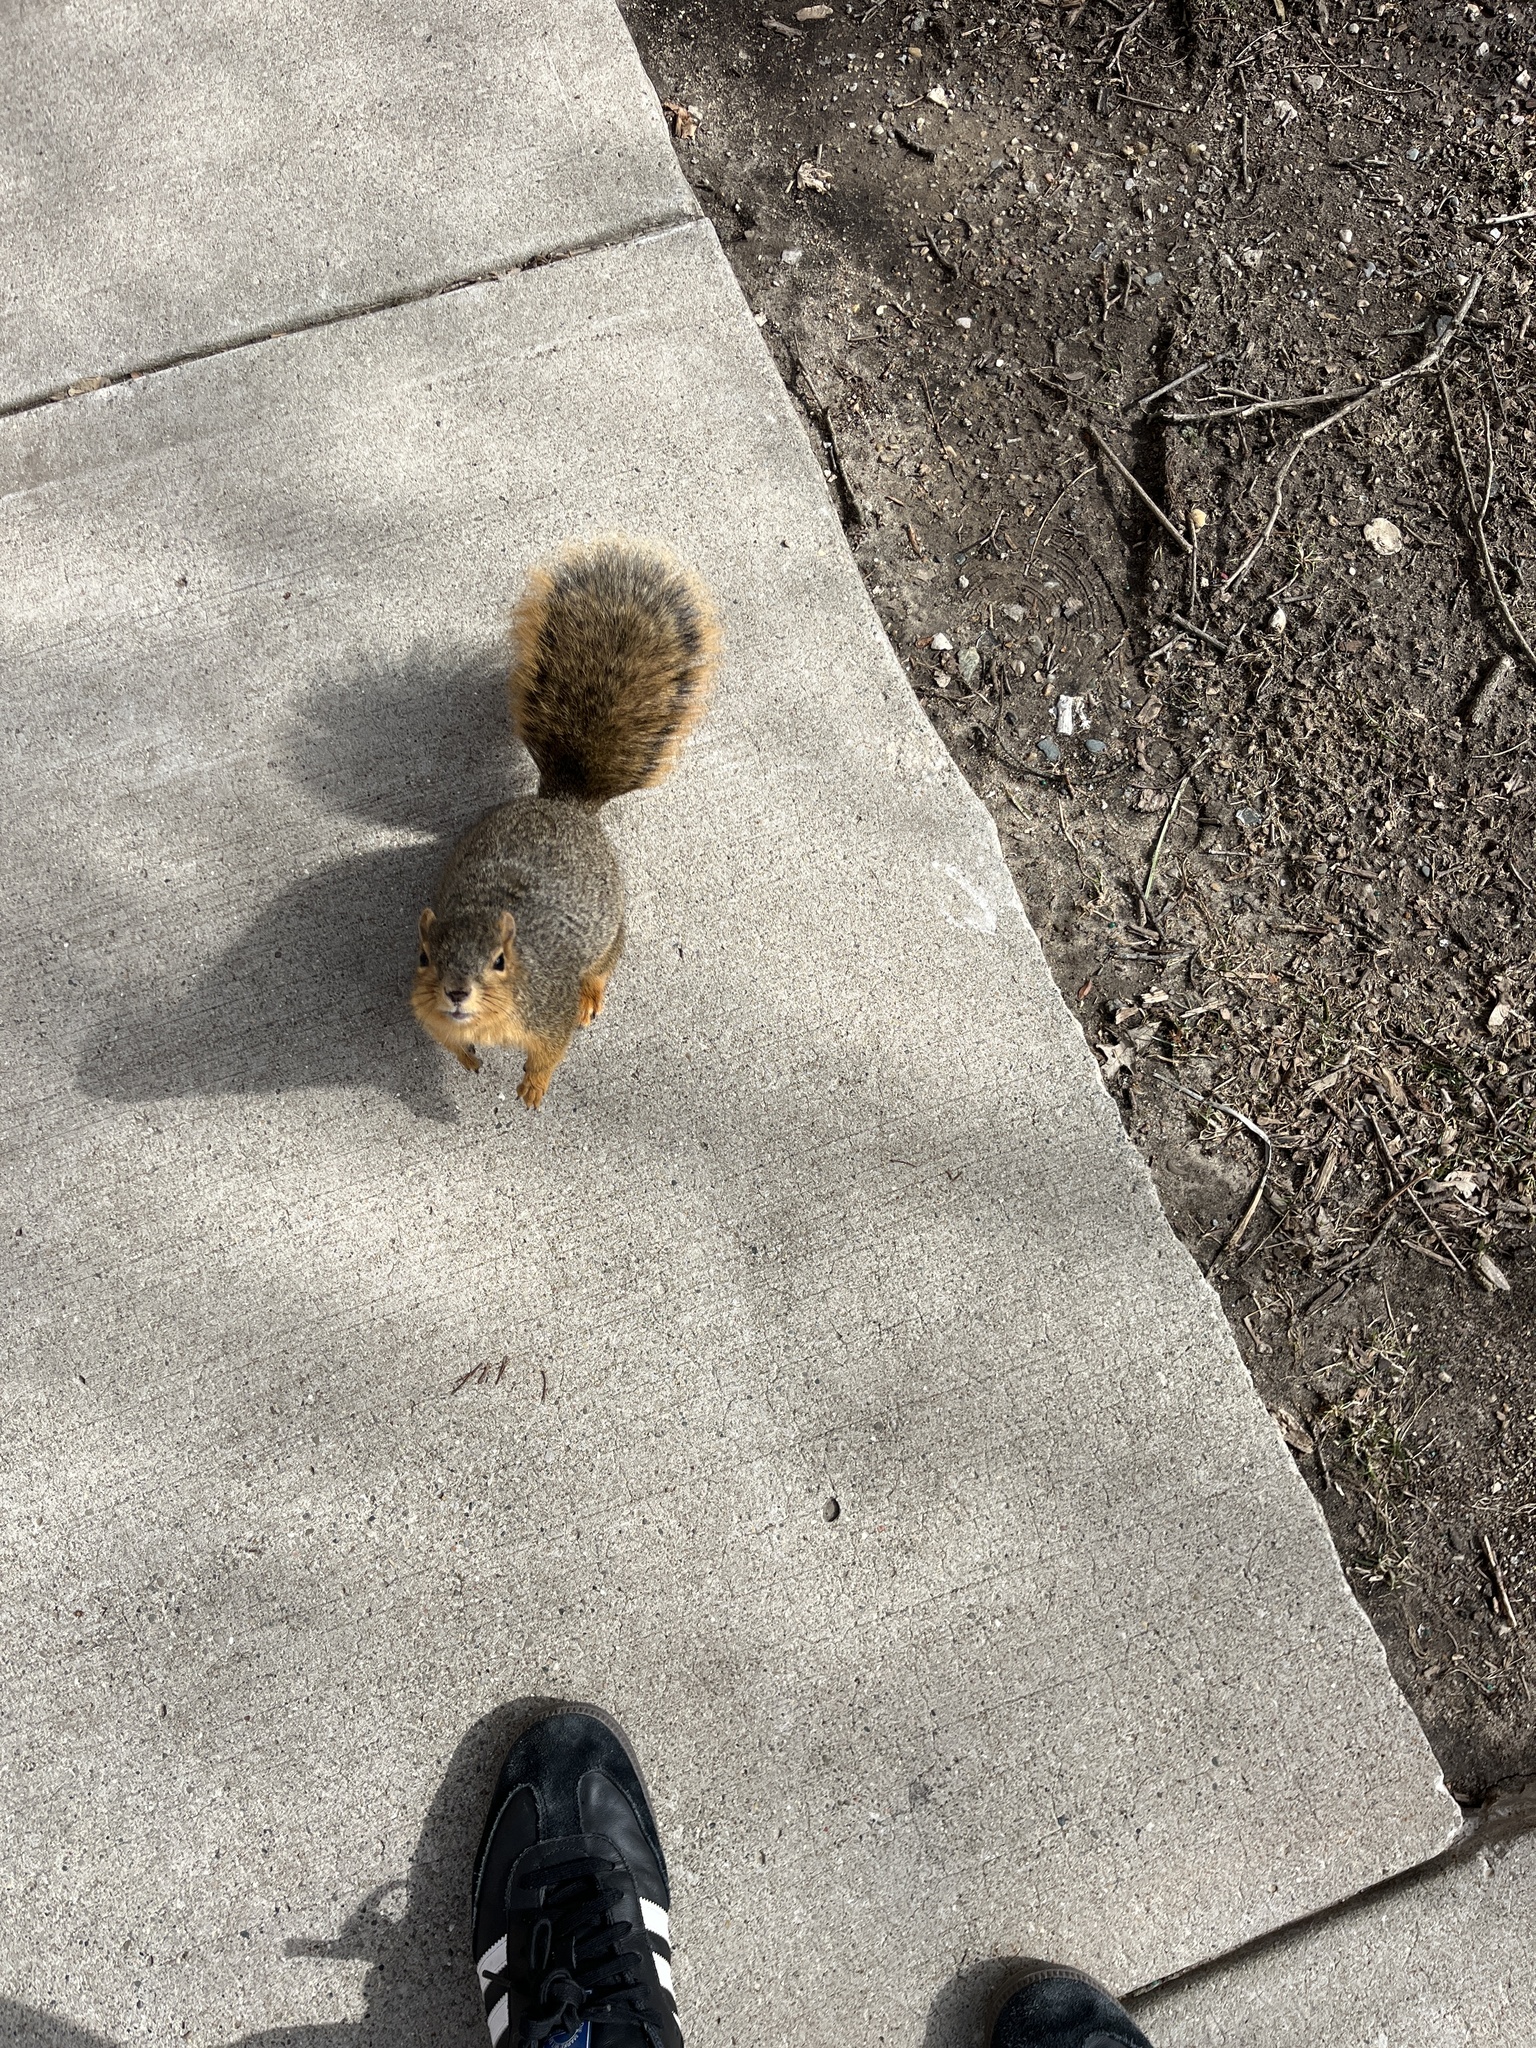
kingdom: Animalia
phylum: Chordata
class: Mammalia
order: Rodentia
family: Sciuridae
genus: Sciurus
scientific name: Sciurus niger
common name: Fox squirrel
